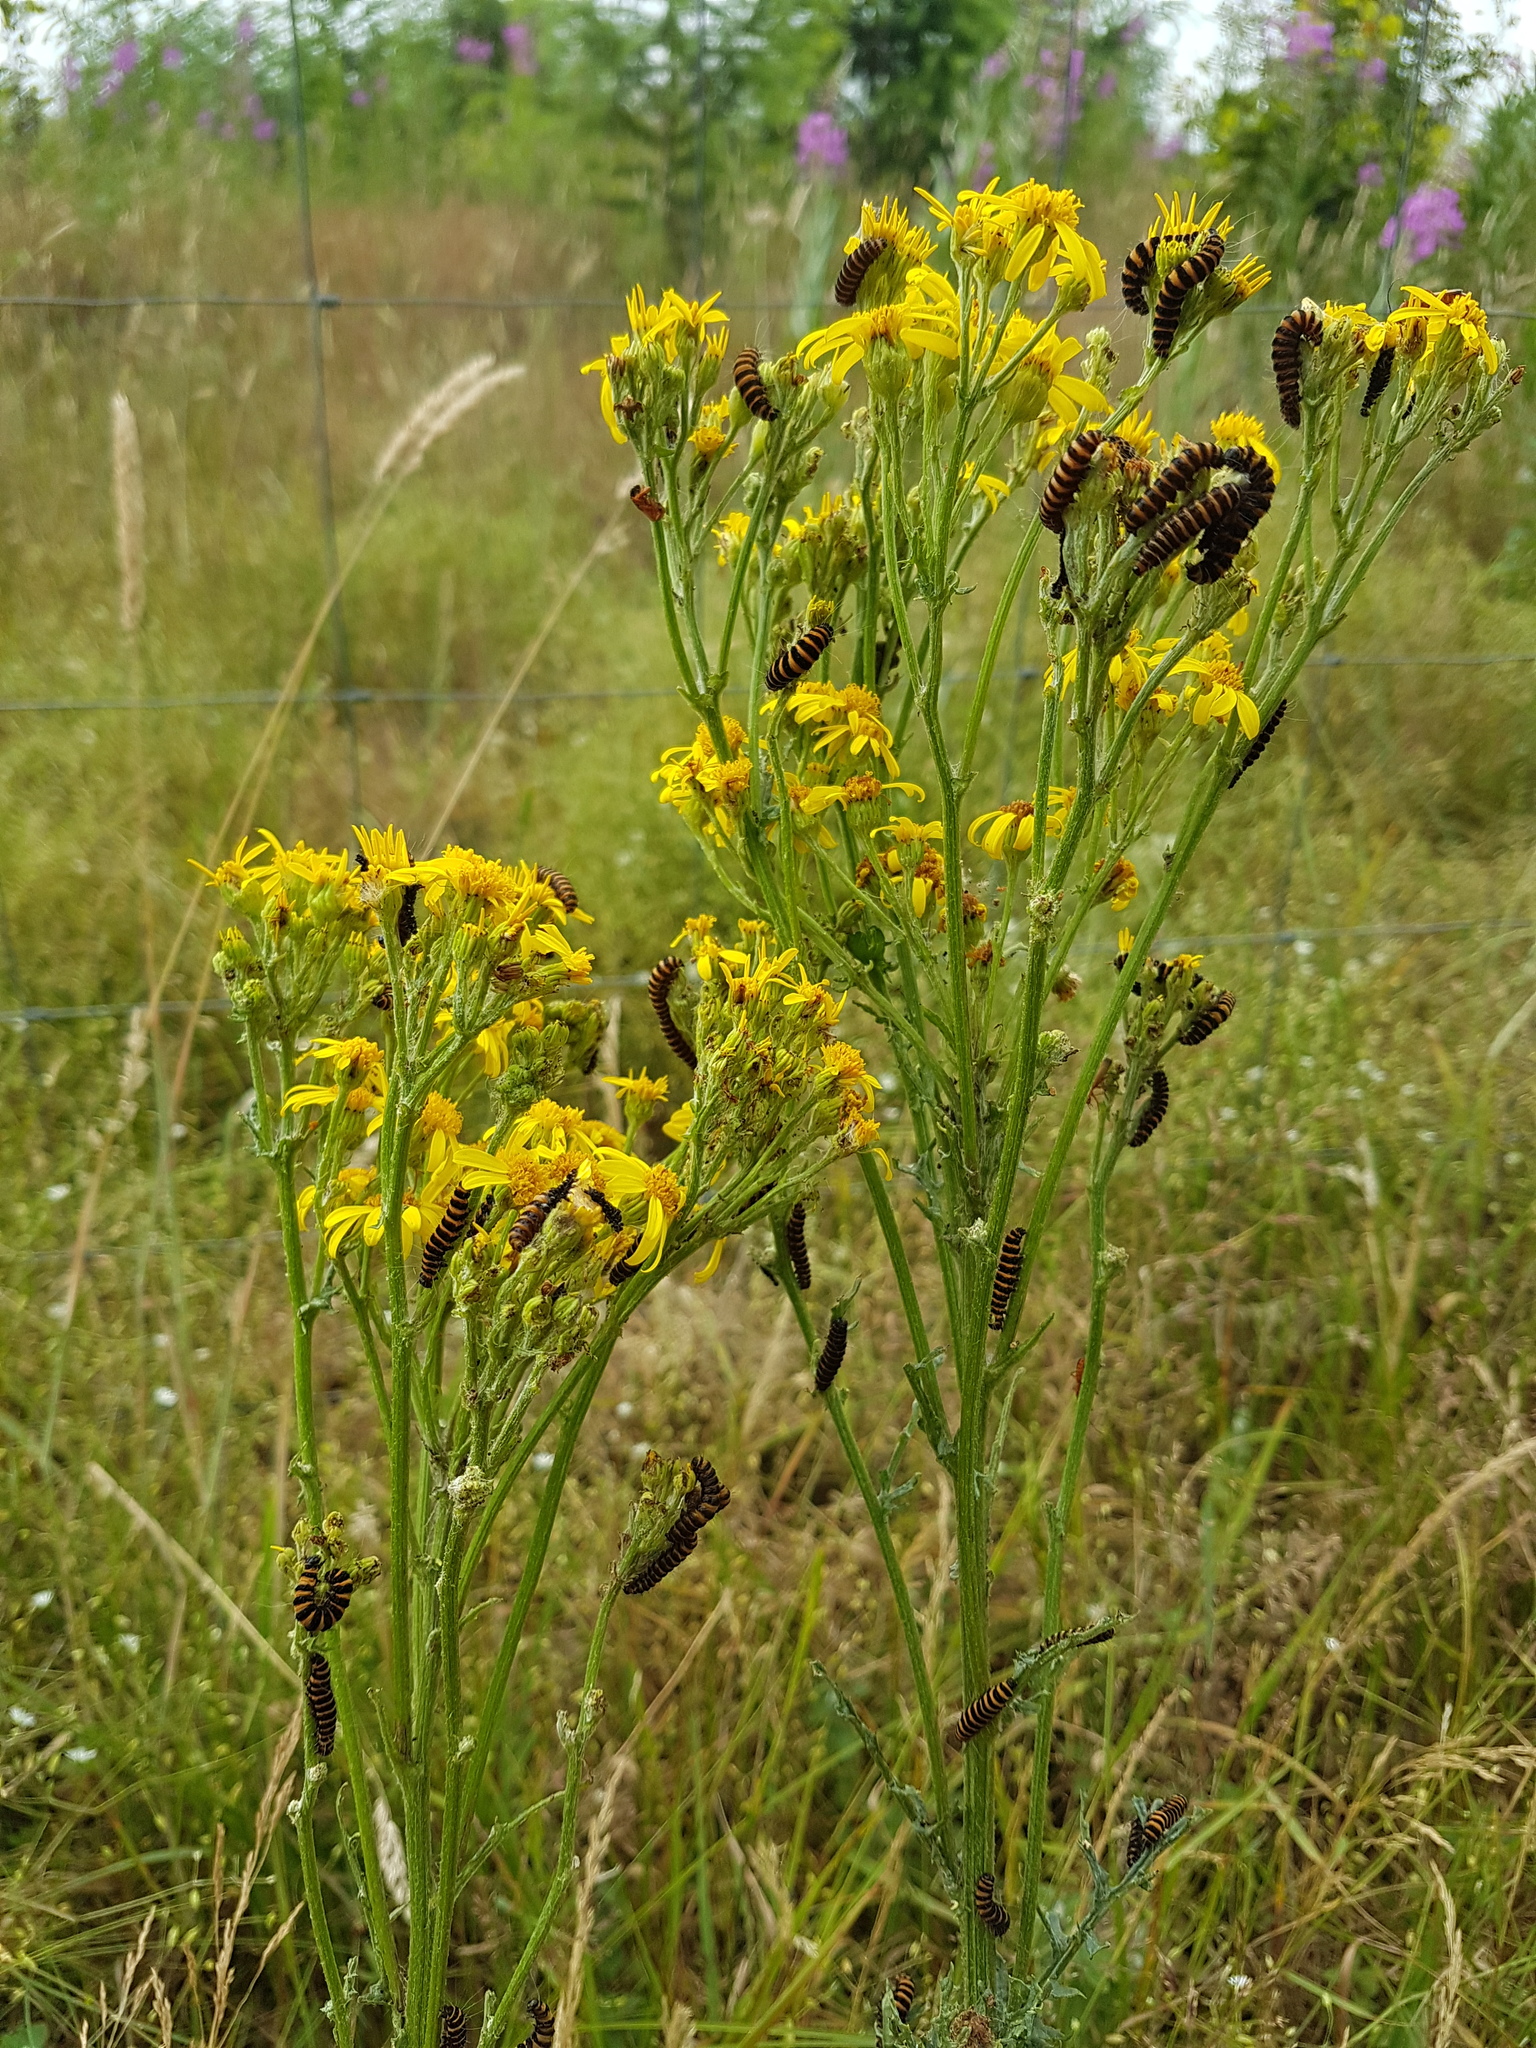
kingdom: Animalia
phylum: Arthropoda
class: Insecta
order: Lepidoptera
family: Erebidae
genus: Tyria
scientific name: Tyria jacobaeae
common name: Cinnabar
